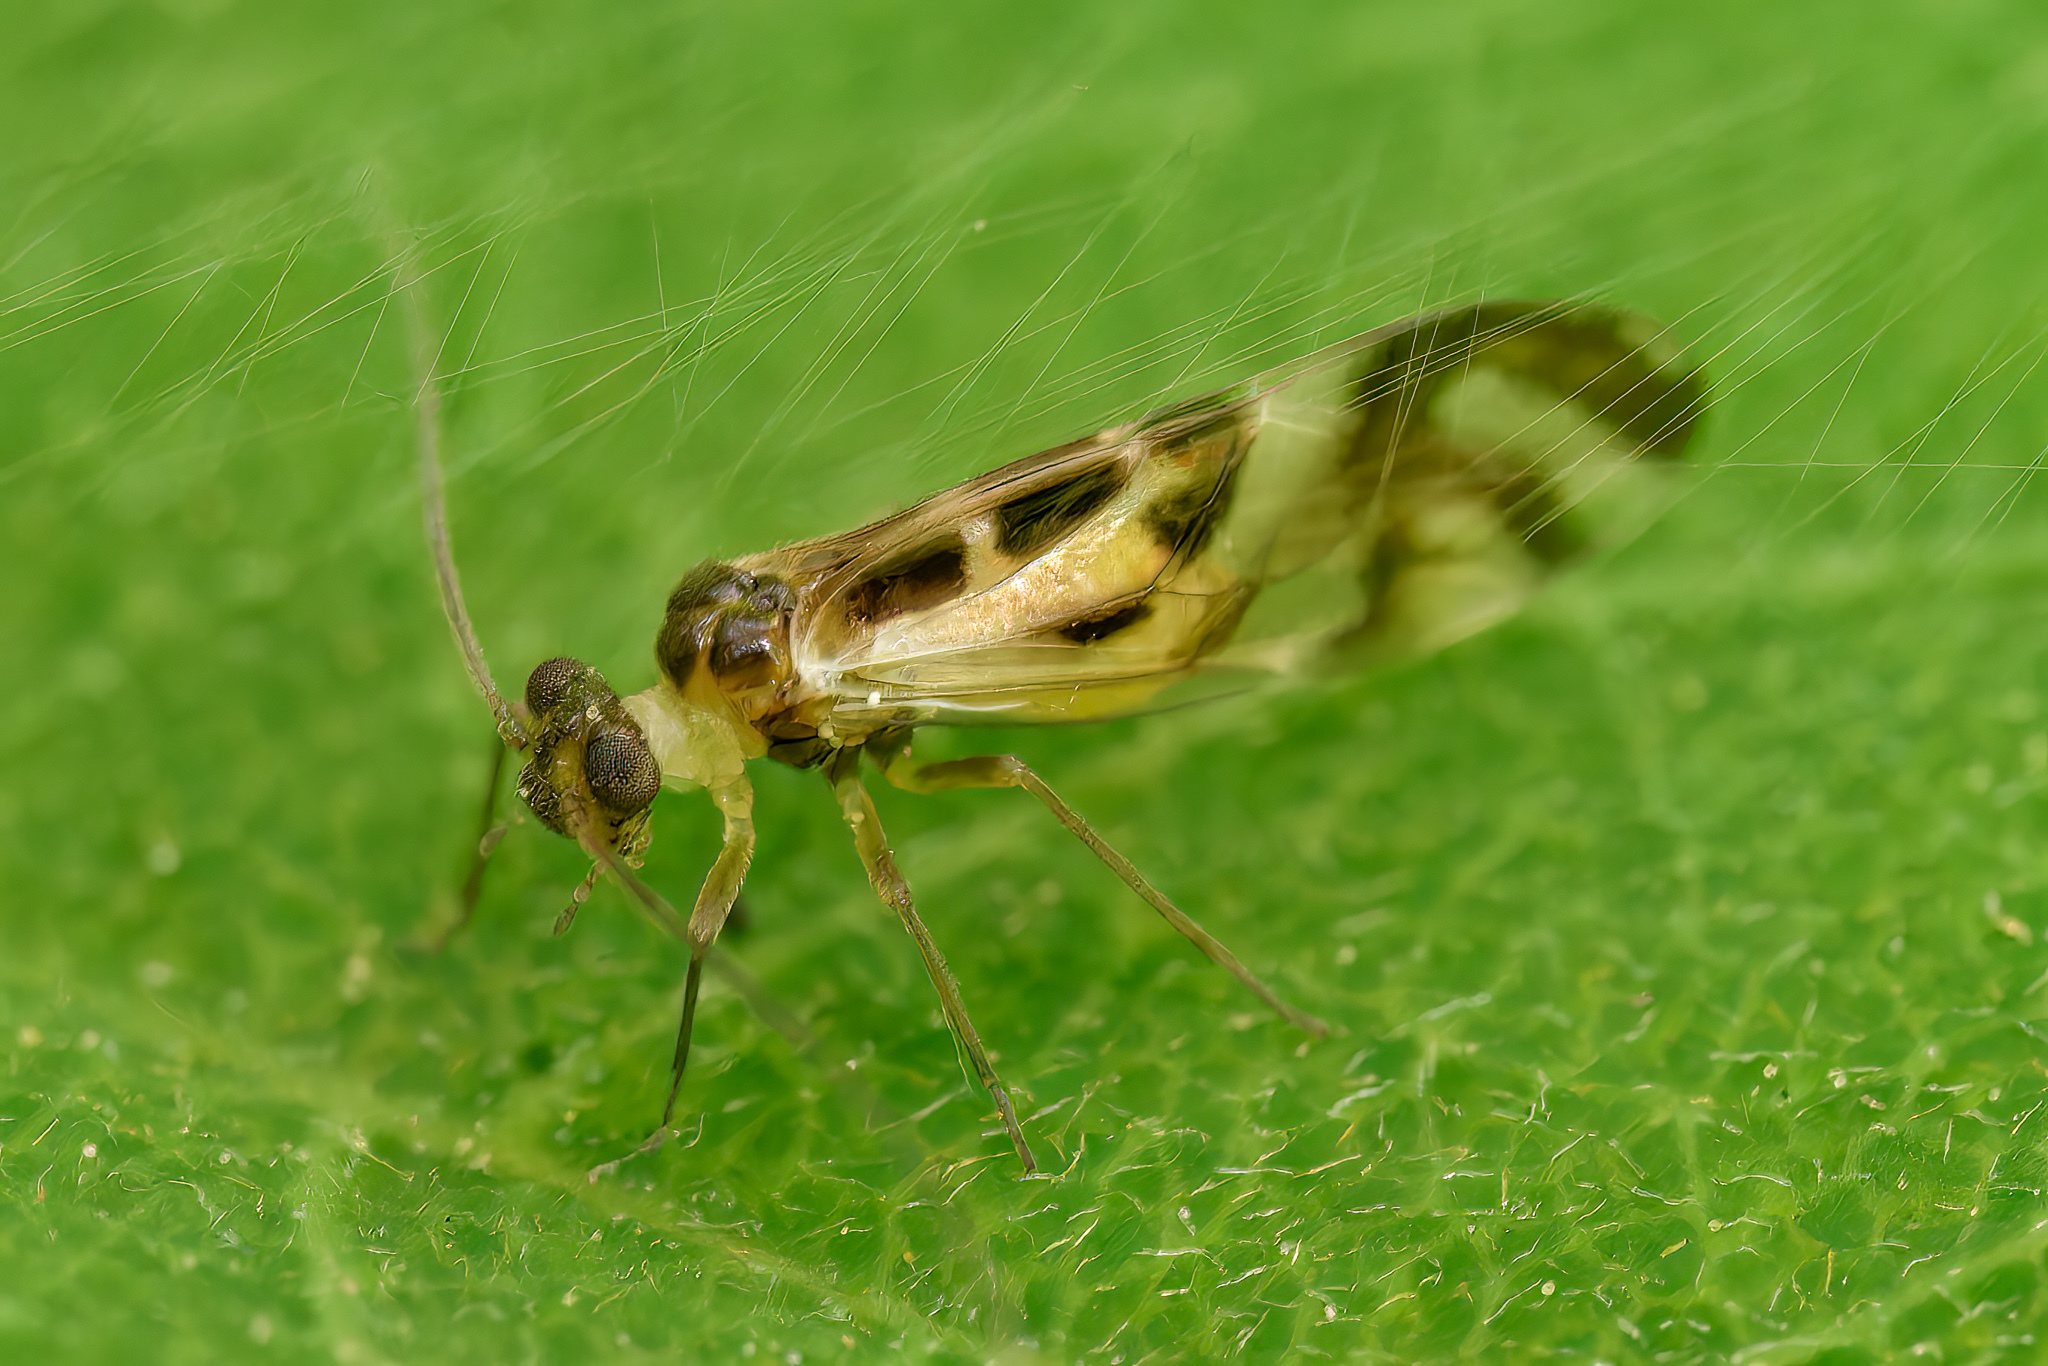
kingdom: Animalia
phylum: Arthropoda
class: Insecta
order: Psocodea
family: Stenopsocidae
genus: Graphopsocus
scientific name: Graphopsocus cruciatus
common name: Lizard bark louse
